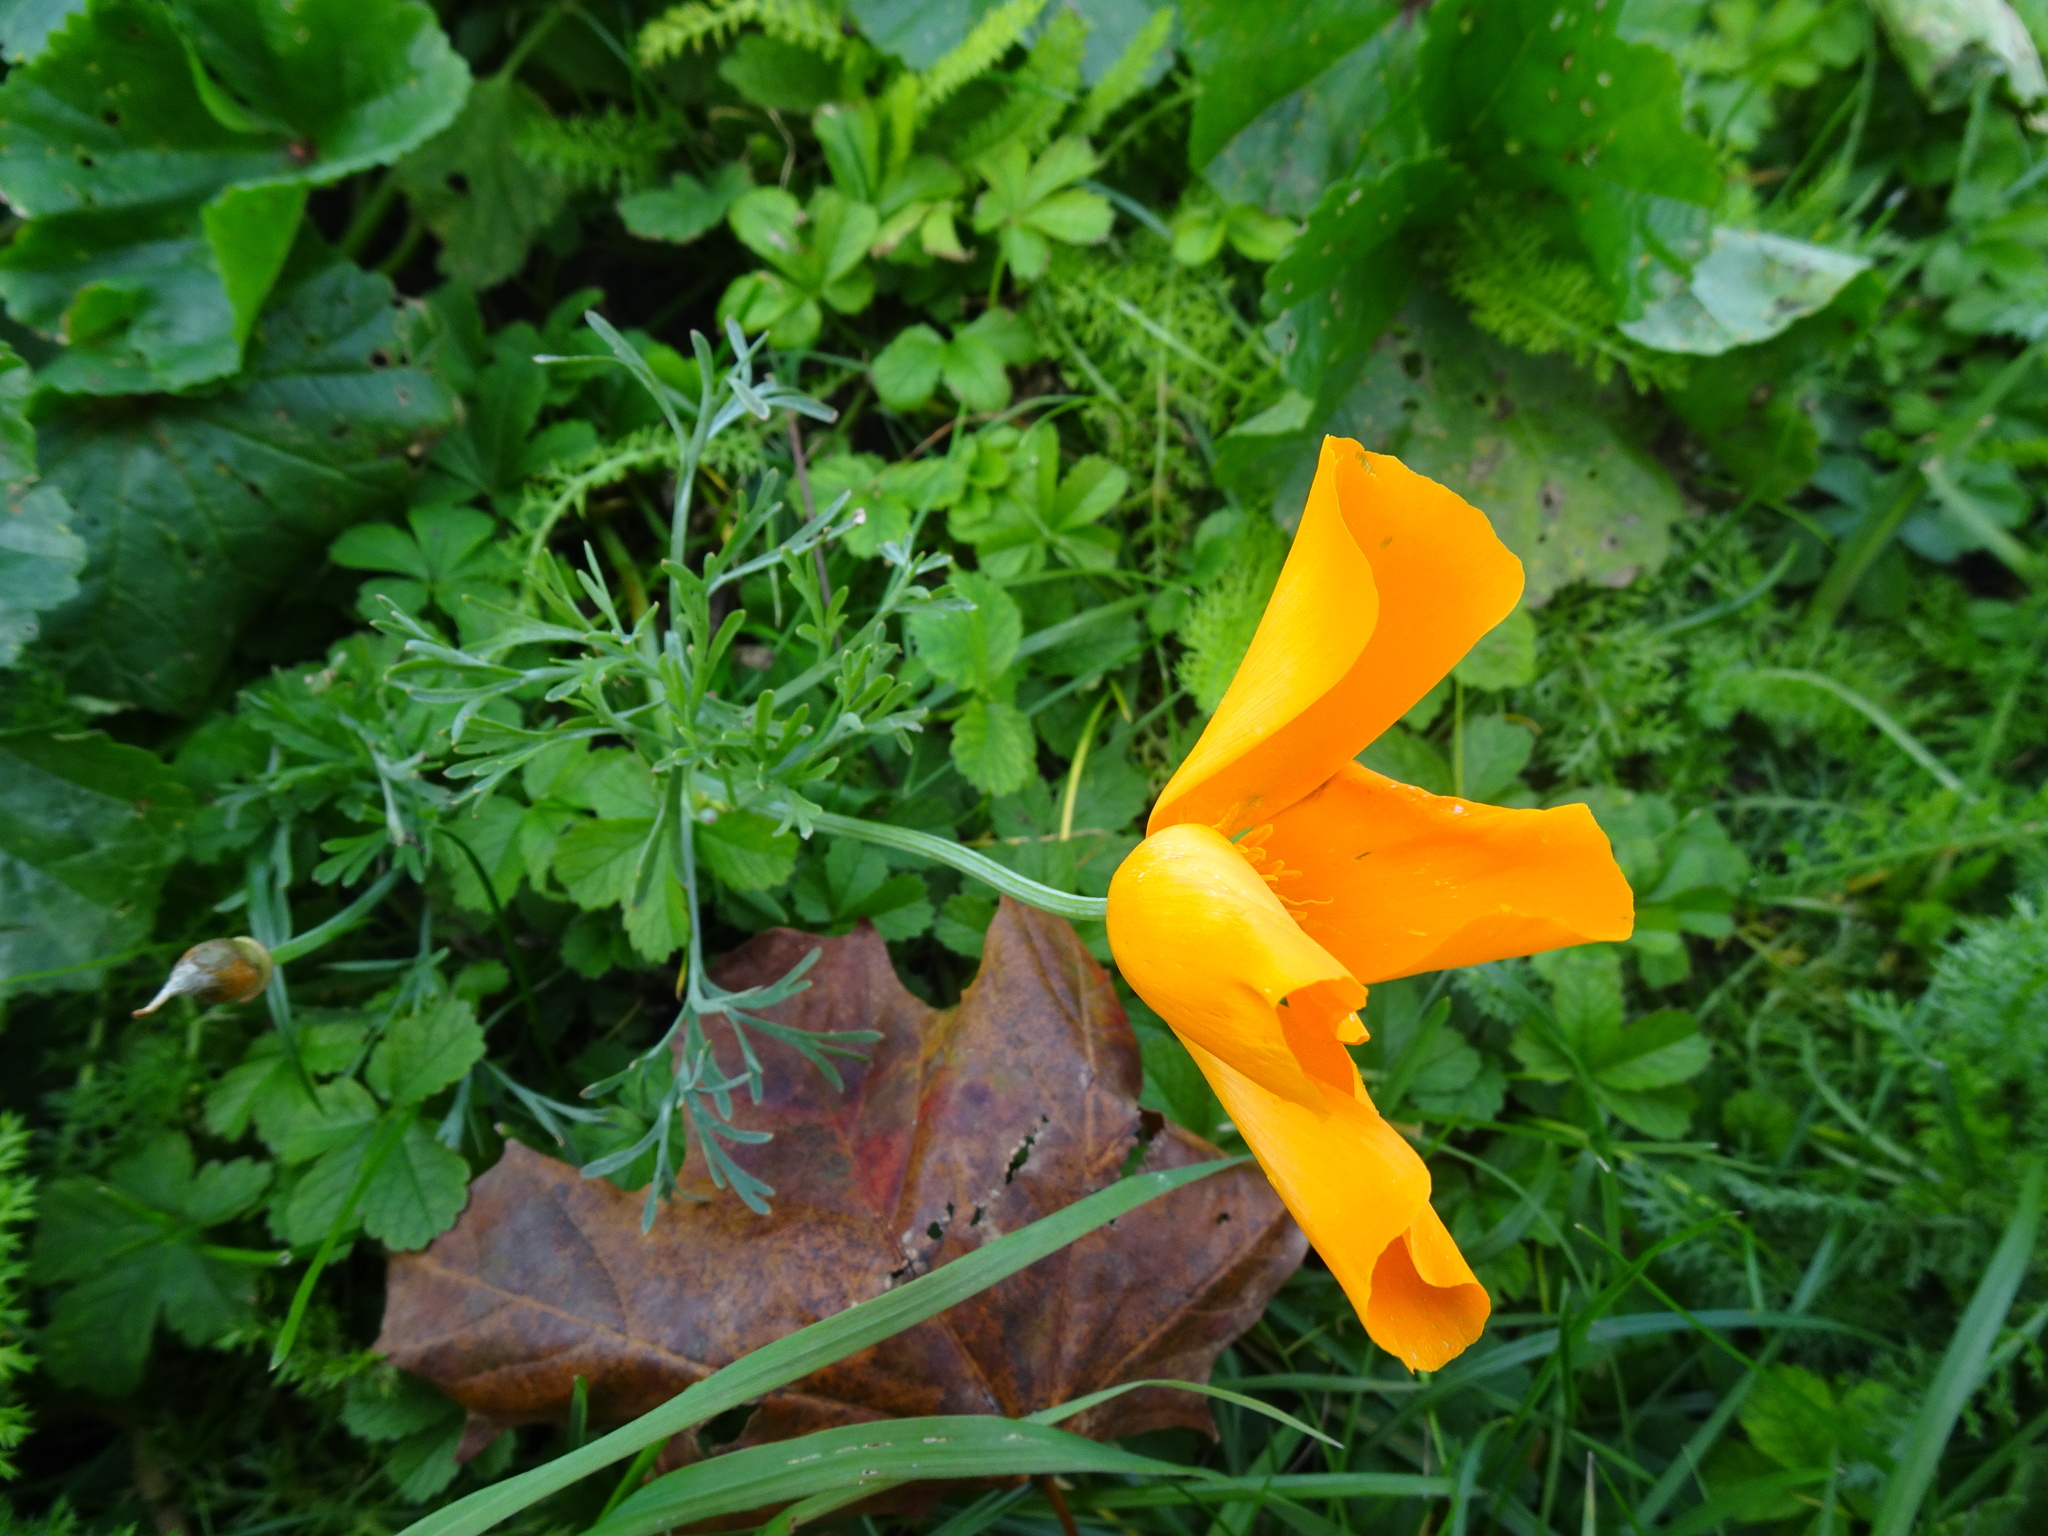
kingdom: Plantae
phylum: Tracheophyta
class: Magnoliopsida
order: Ranunculales
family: Papaveraceae
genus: Eschscholzia
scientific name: Eschscholzia californica
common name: California poppy
